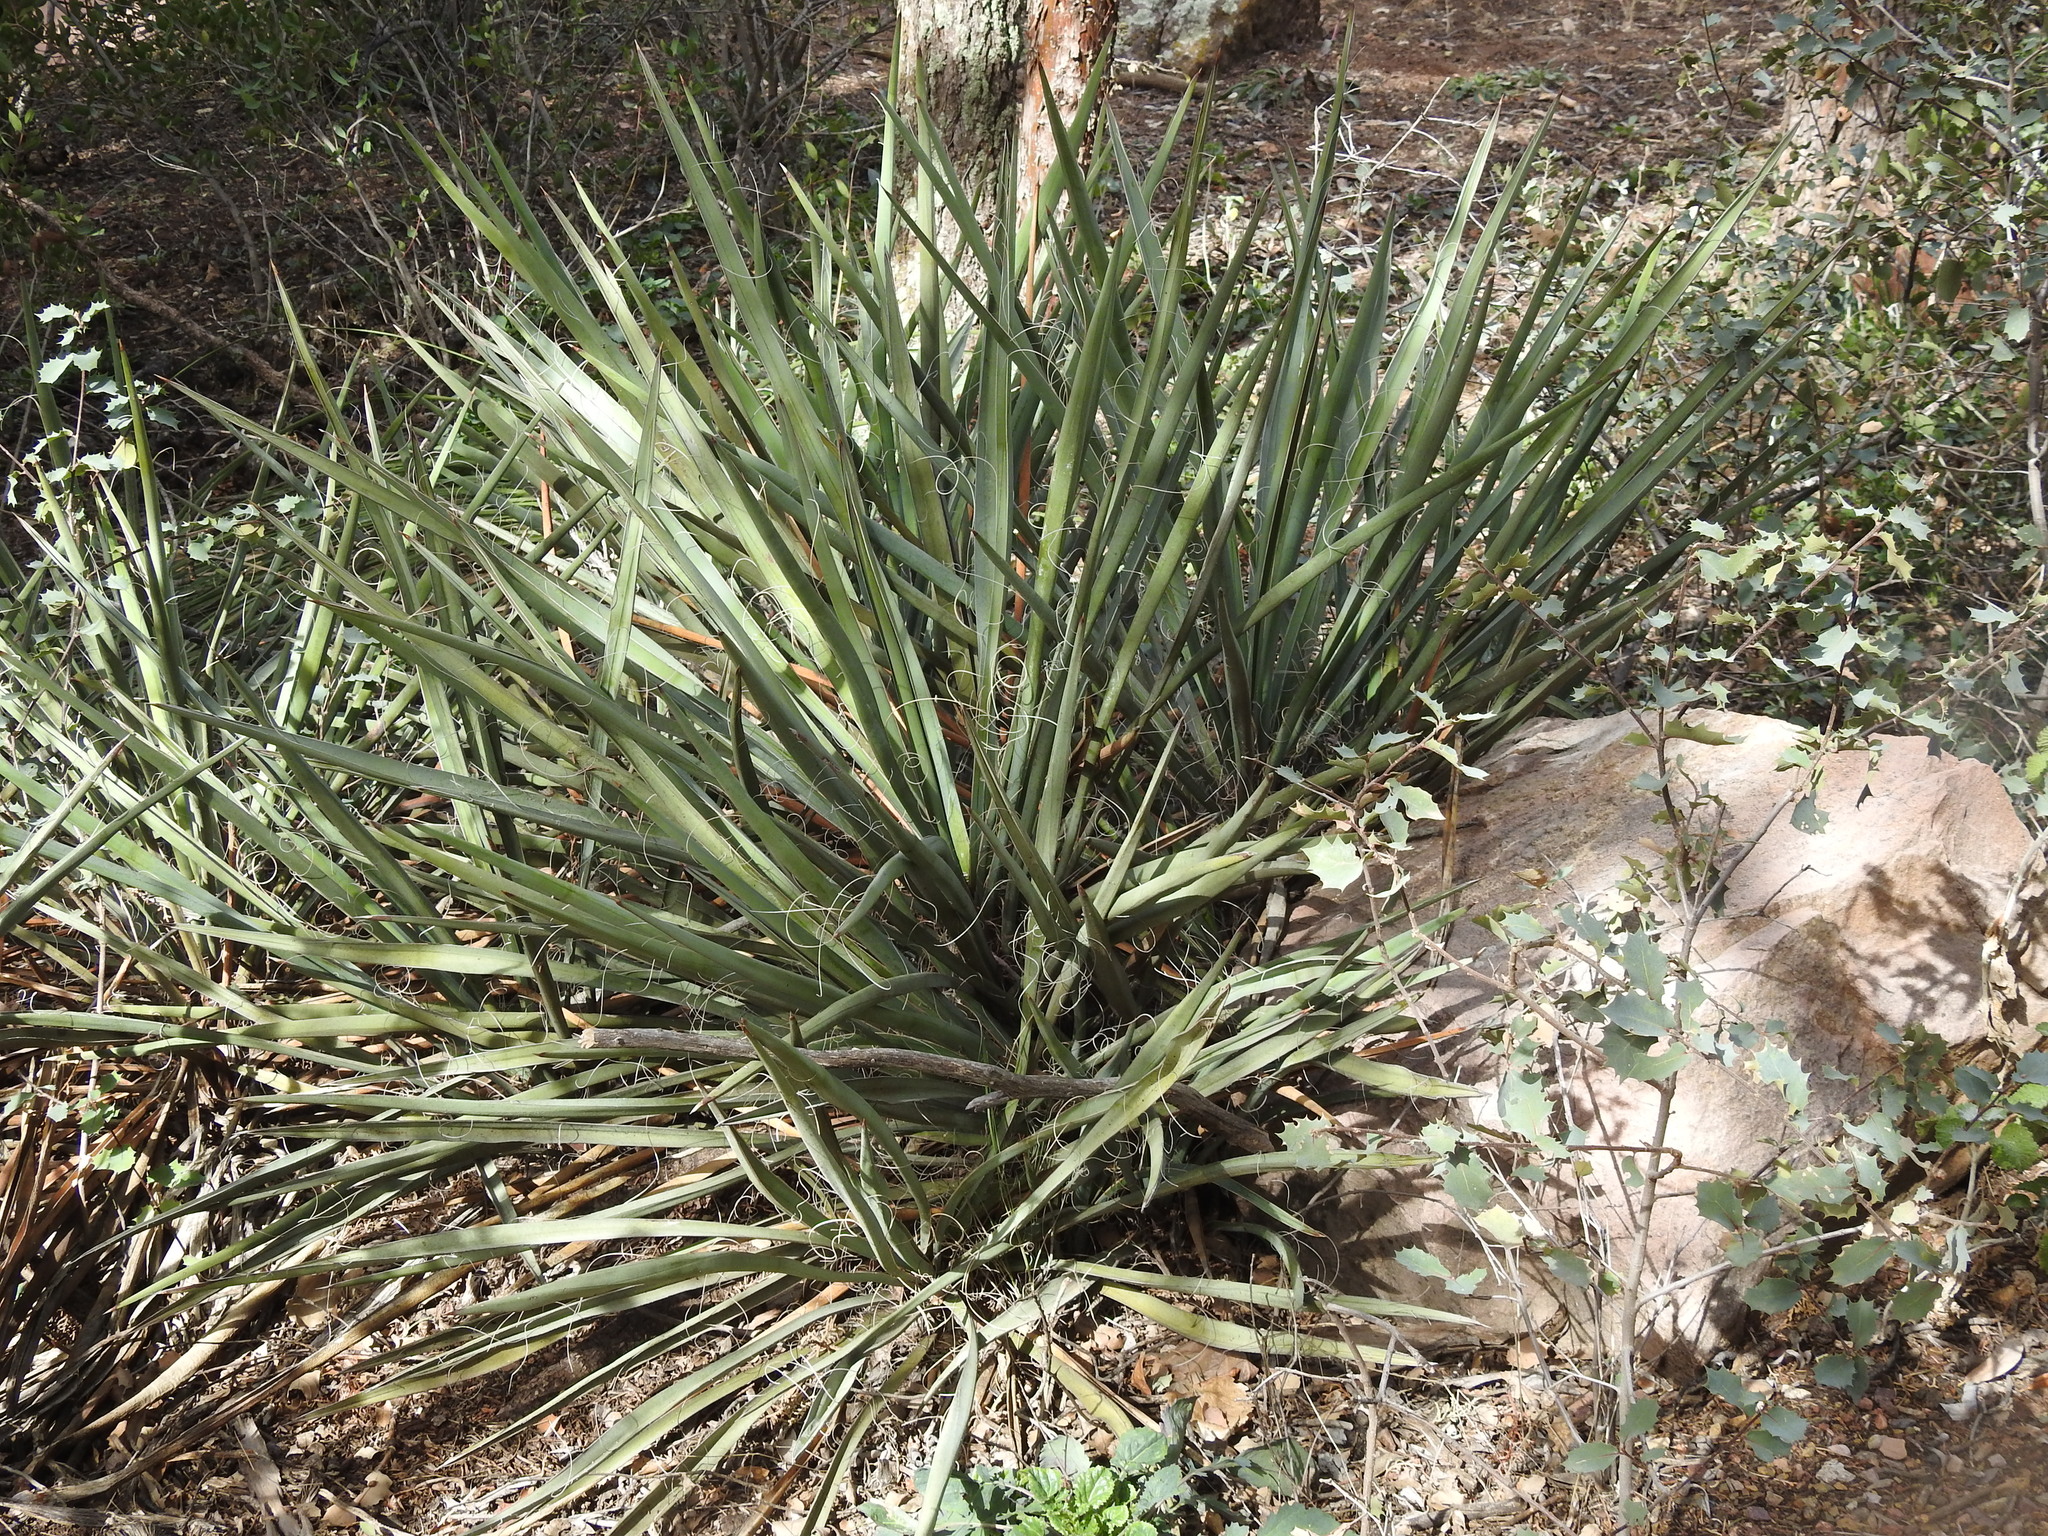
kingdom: Plantae
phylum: Tracheophyta
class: Liliopsida
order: Asparagales
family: Asparagaceae
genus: Yucca
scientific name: Yucca baccata
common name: Banana yucca
